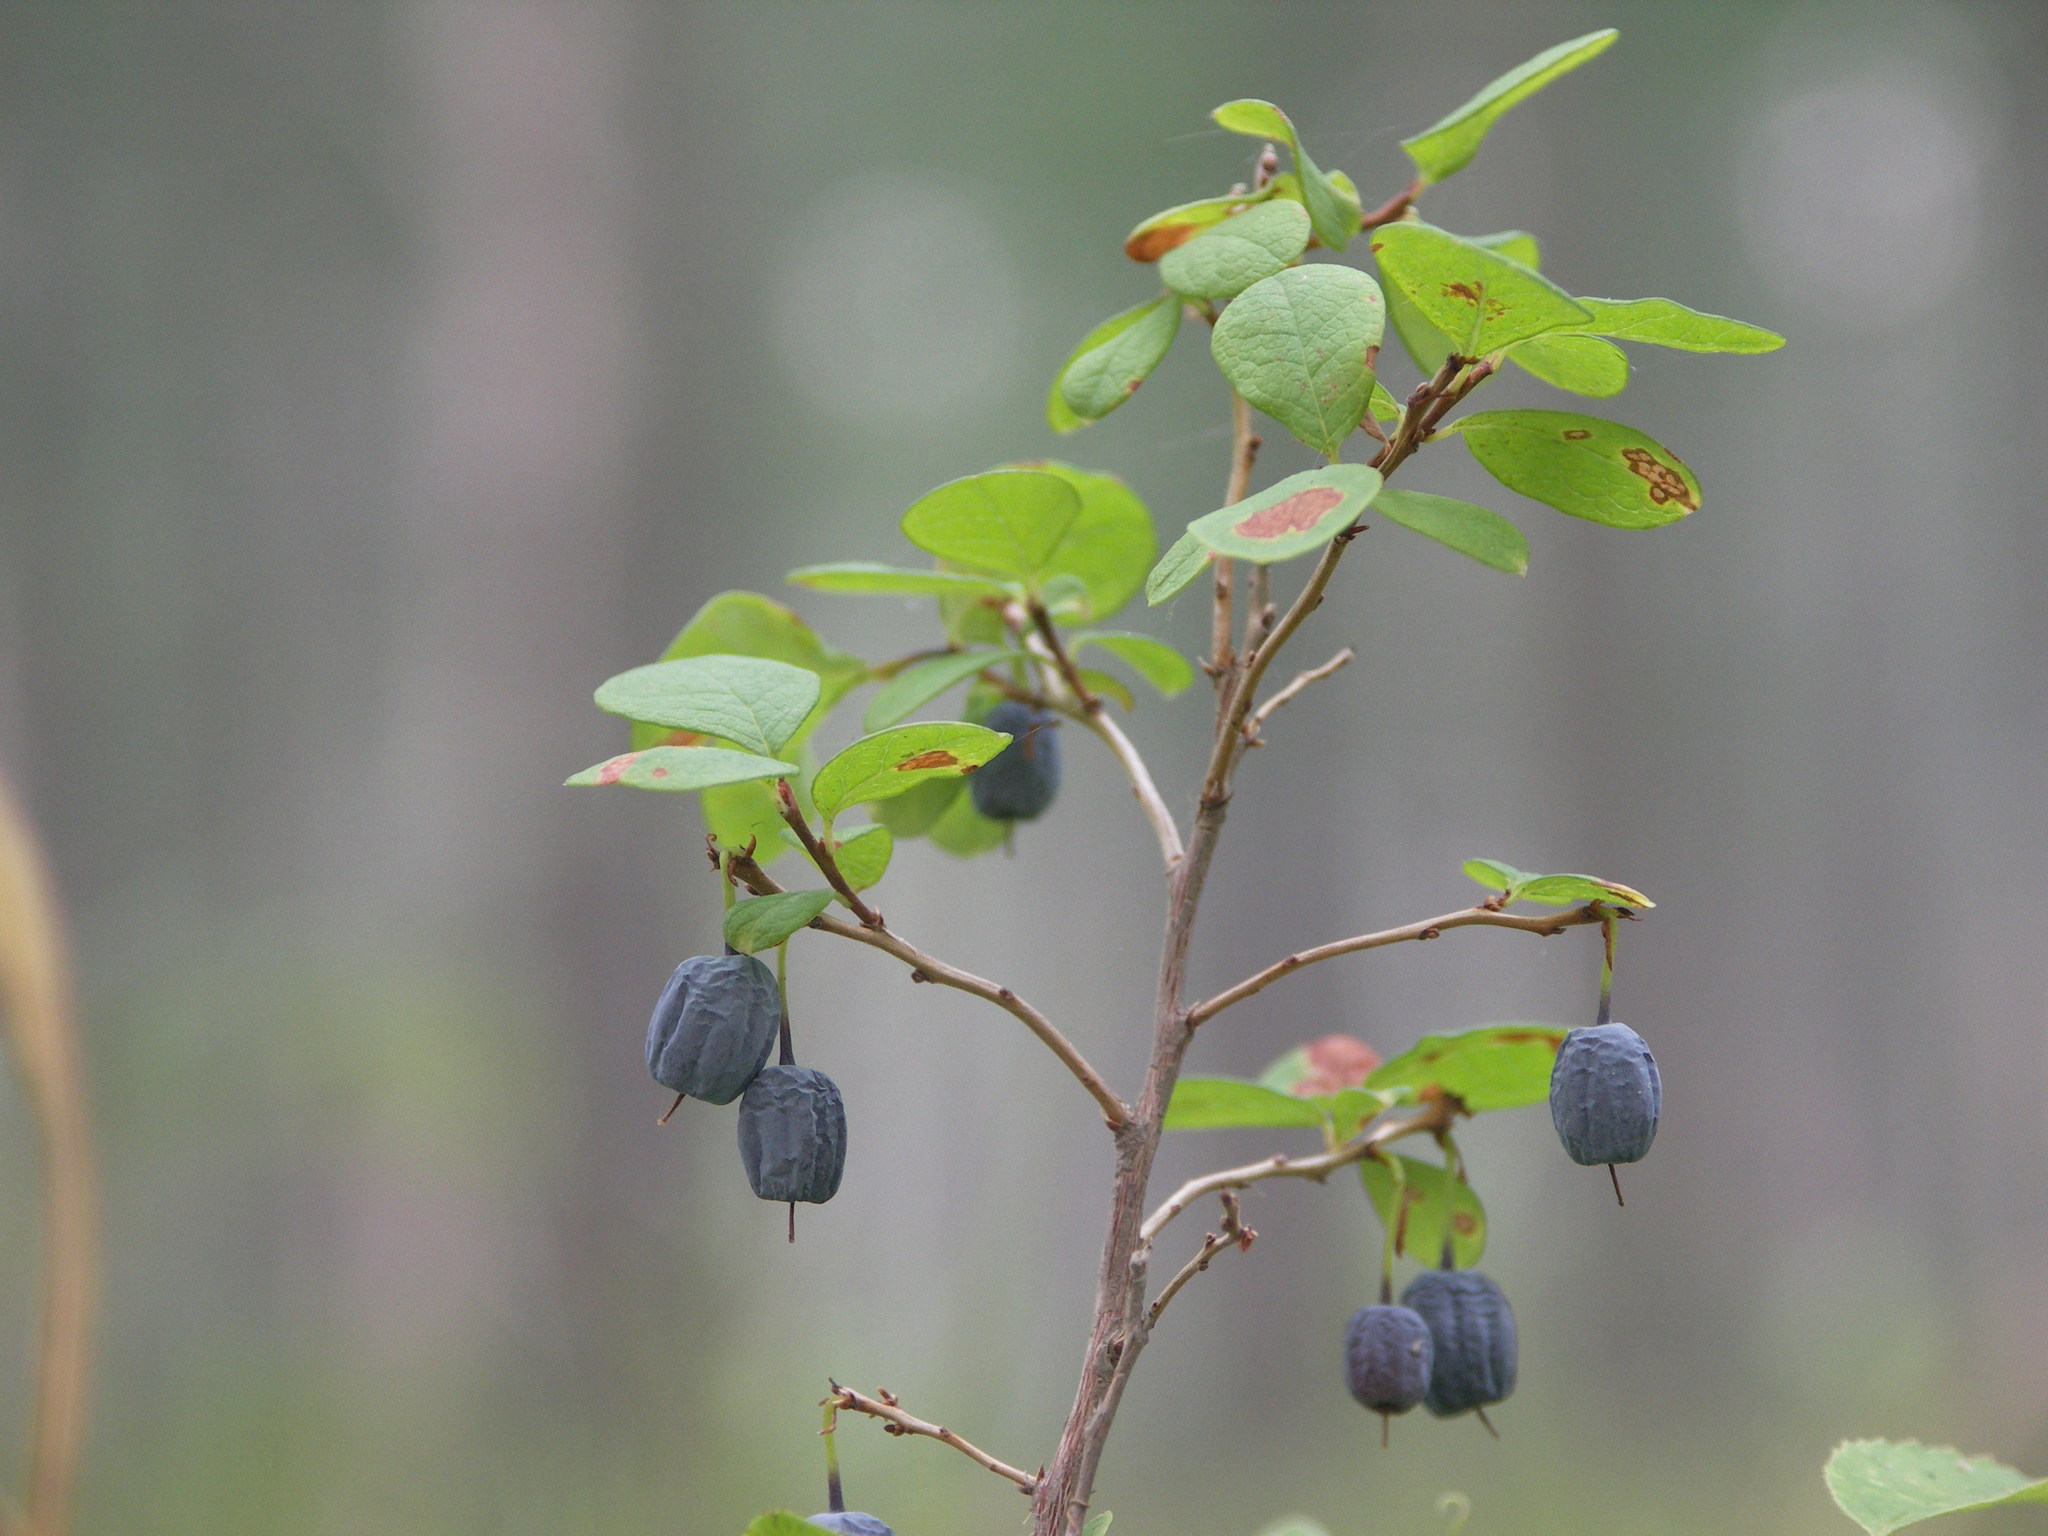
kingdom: Plantae
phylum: Tracheophyta
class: Magnoliopsida
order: Ericales
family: Ericaceae
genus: Vaccinium
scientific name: Vaccinium uliginosum
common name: Bog bilberry
